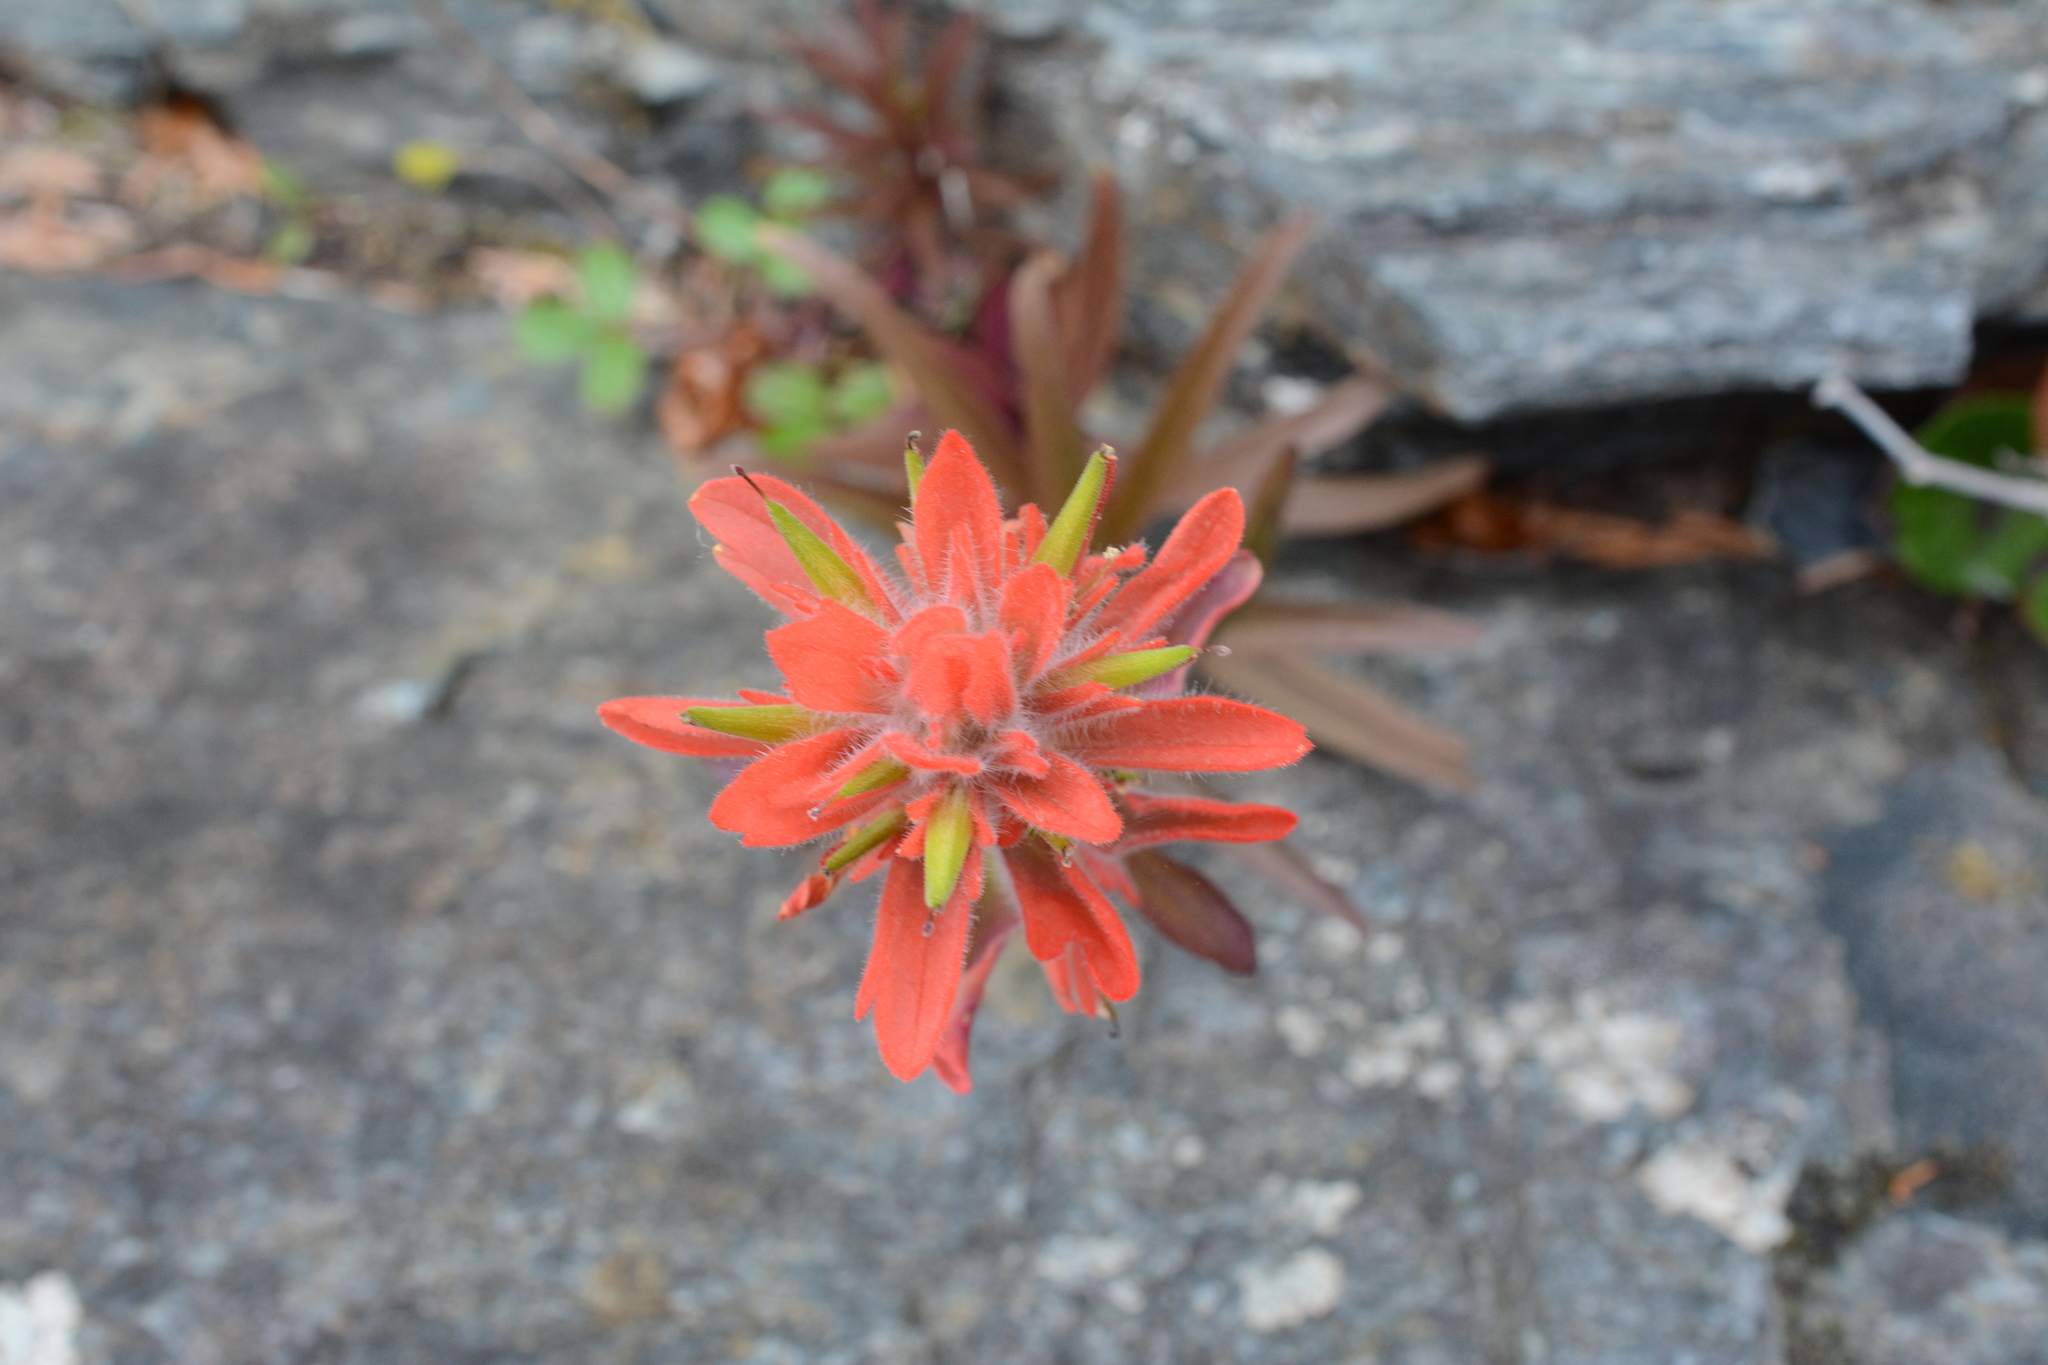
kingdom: Plantae
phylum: Tracheophyta
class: Magnoliopsida
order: Lamiales
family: Orobanchaceae
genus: Castilleja
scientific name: Castilleja miniata
